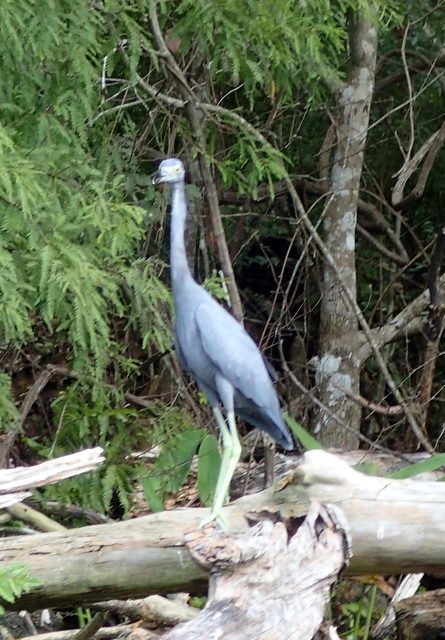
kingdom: Animalia
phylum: Chordata
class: Aves
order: Pelecaniformes
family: Ardeidae
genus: Egretta
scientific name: Egretta caerulea
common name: Little blue heron
